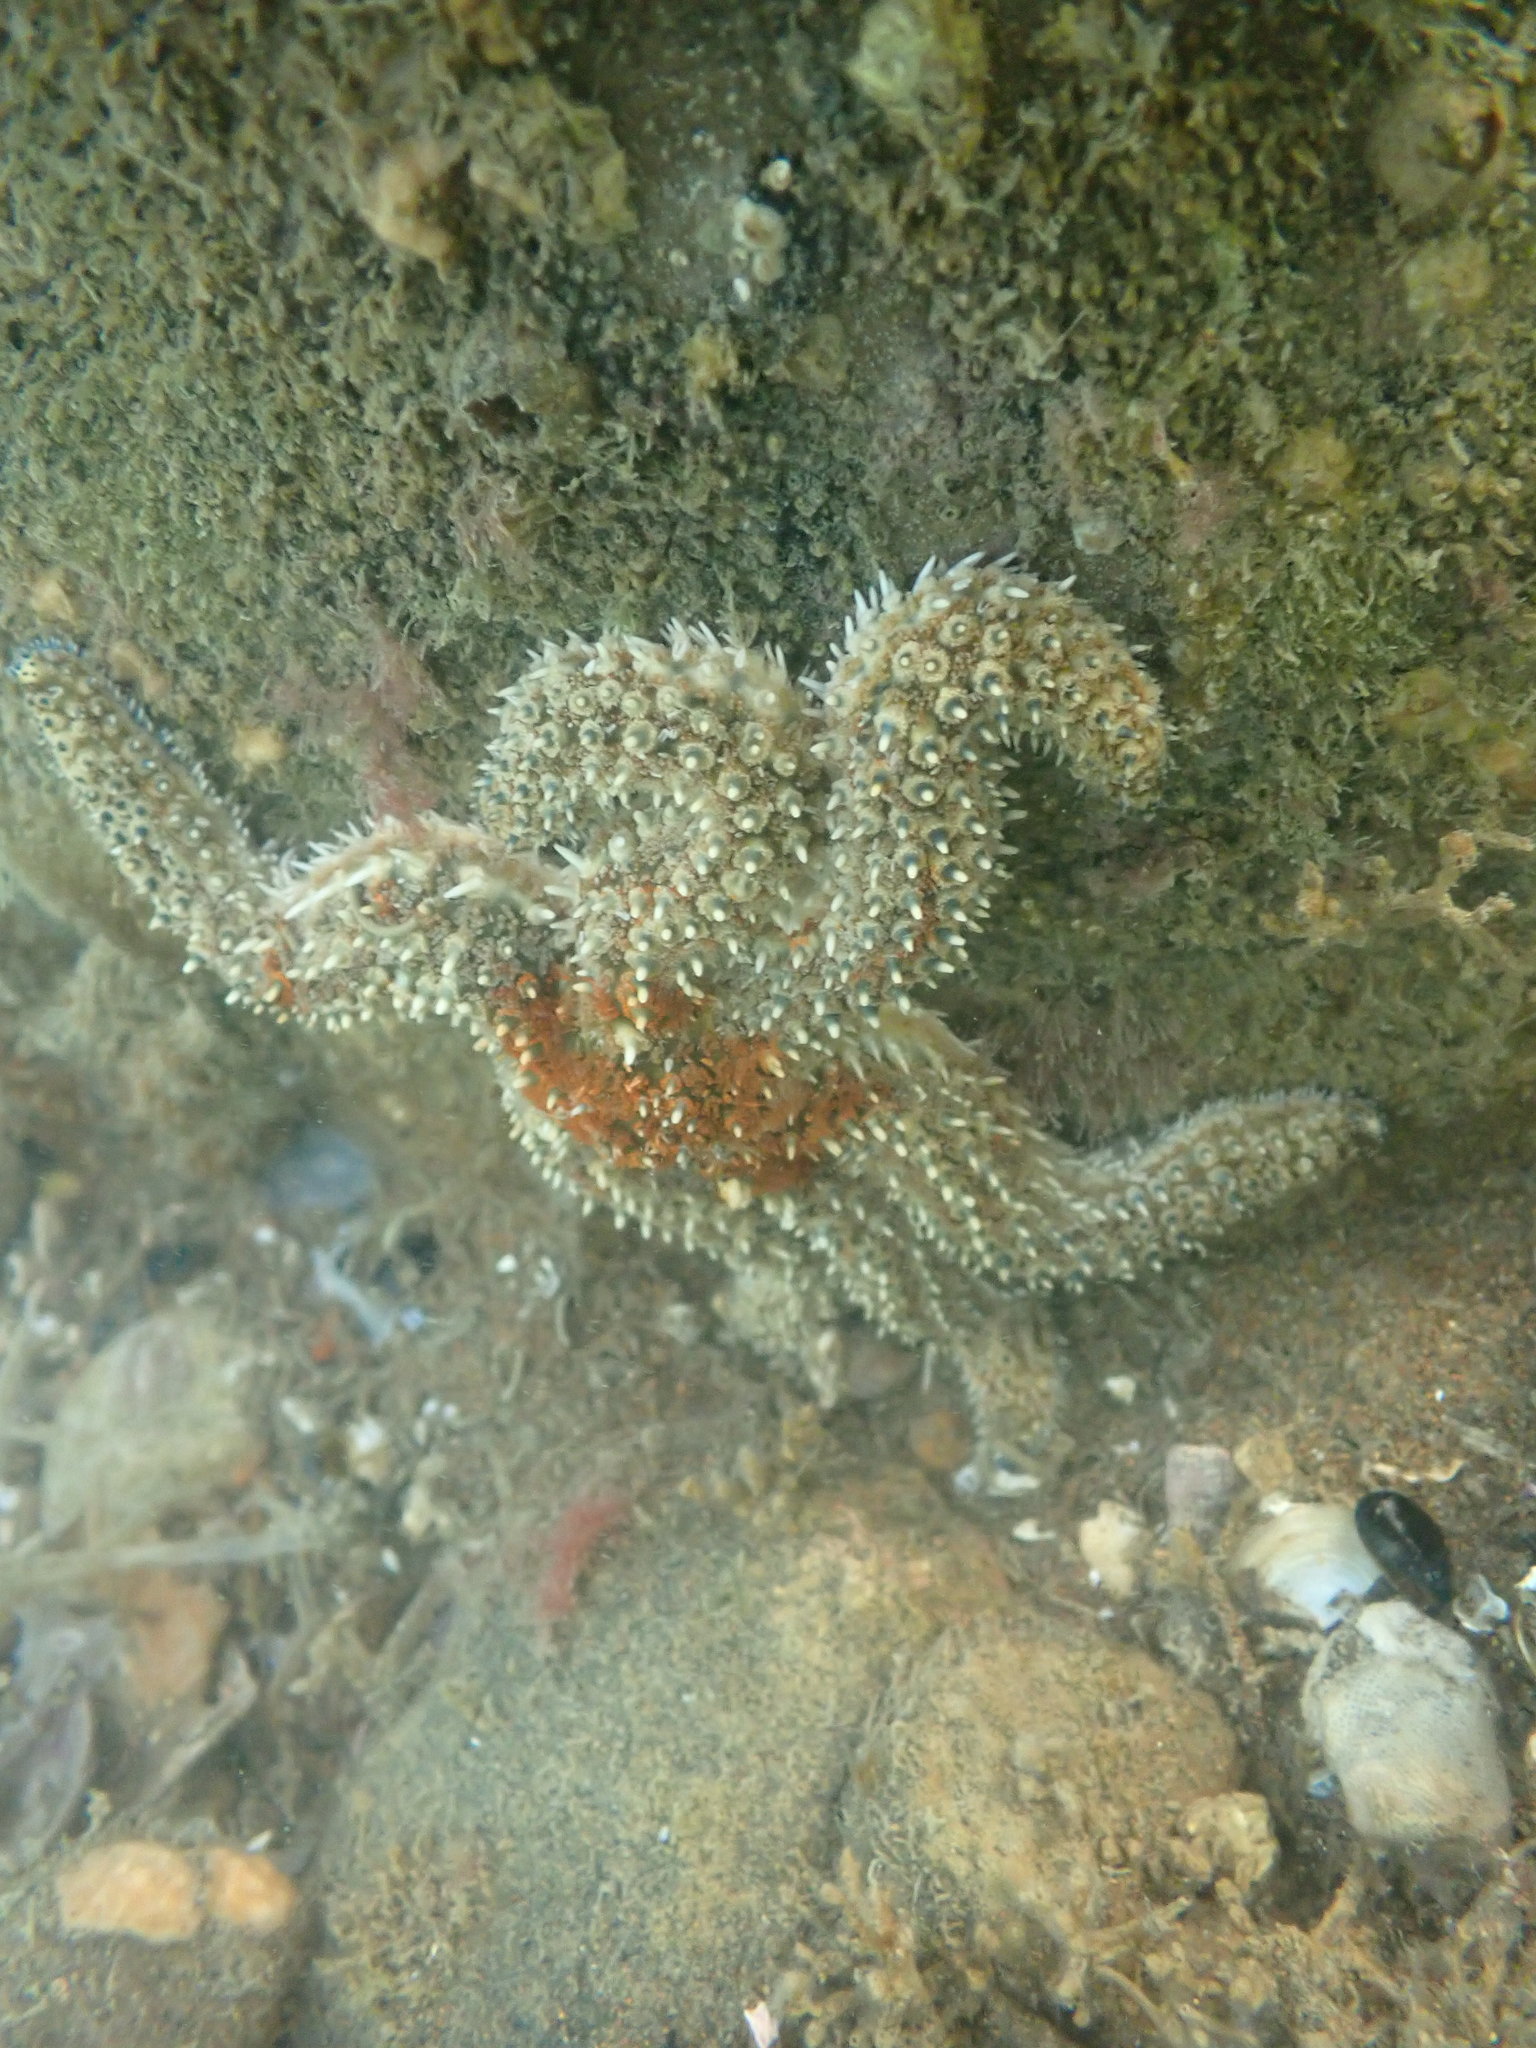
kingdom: Animalia
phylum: Echinodermata
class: Asteroidea
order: Forcipulatida
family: Asteriidae
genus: Coscinasterias
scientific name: Coscinasterias muricata
